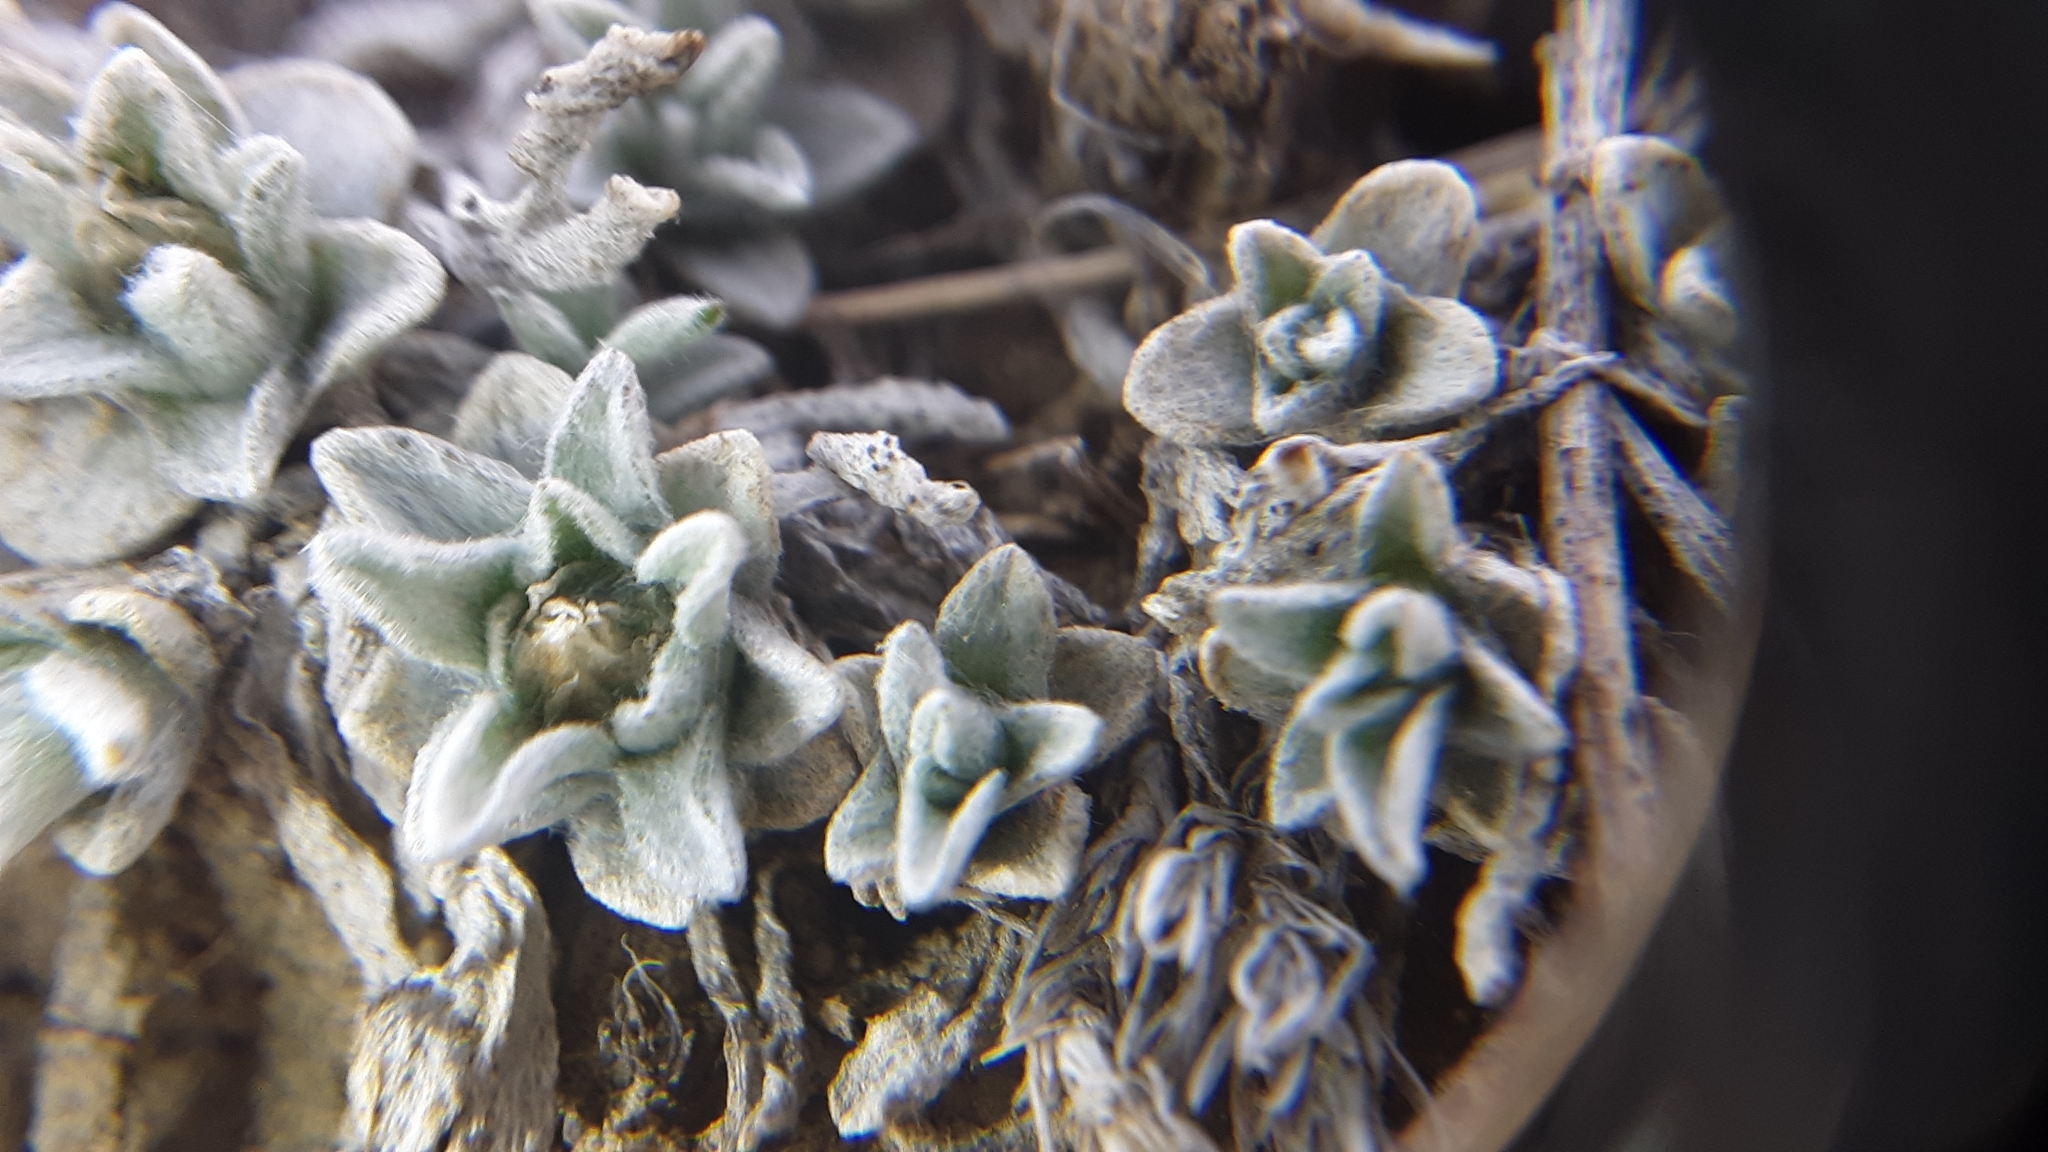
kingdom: Plantae
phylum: Tracheophyta
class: Magnoliopsida
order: Asterales
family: Asteraceae
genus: Antennaria
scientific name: Antennaria dimorpha
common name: Cushion pussytoes
